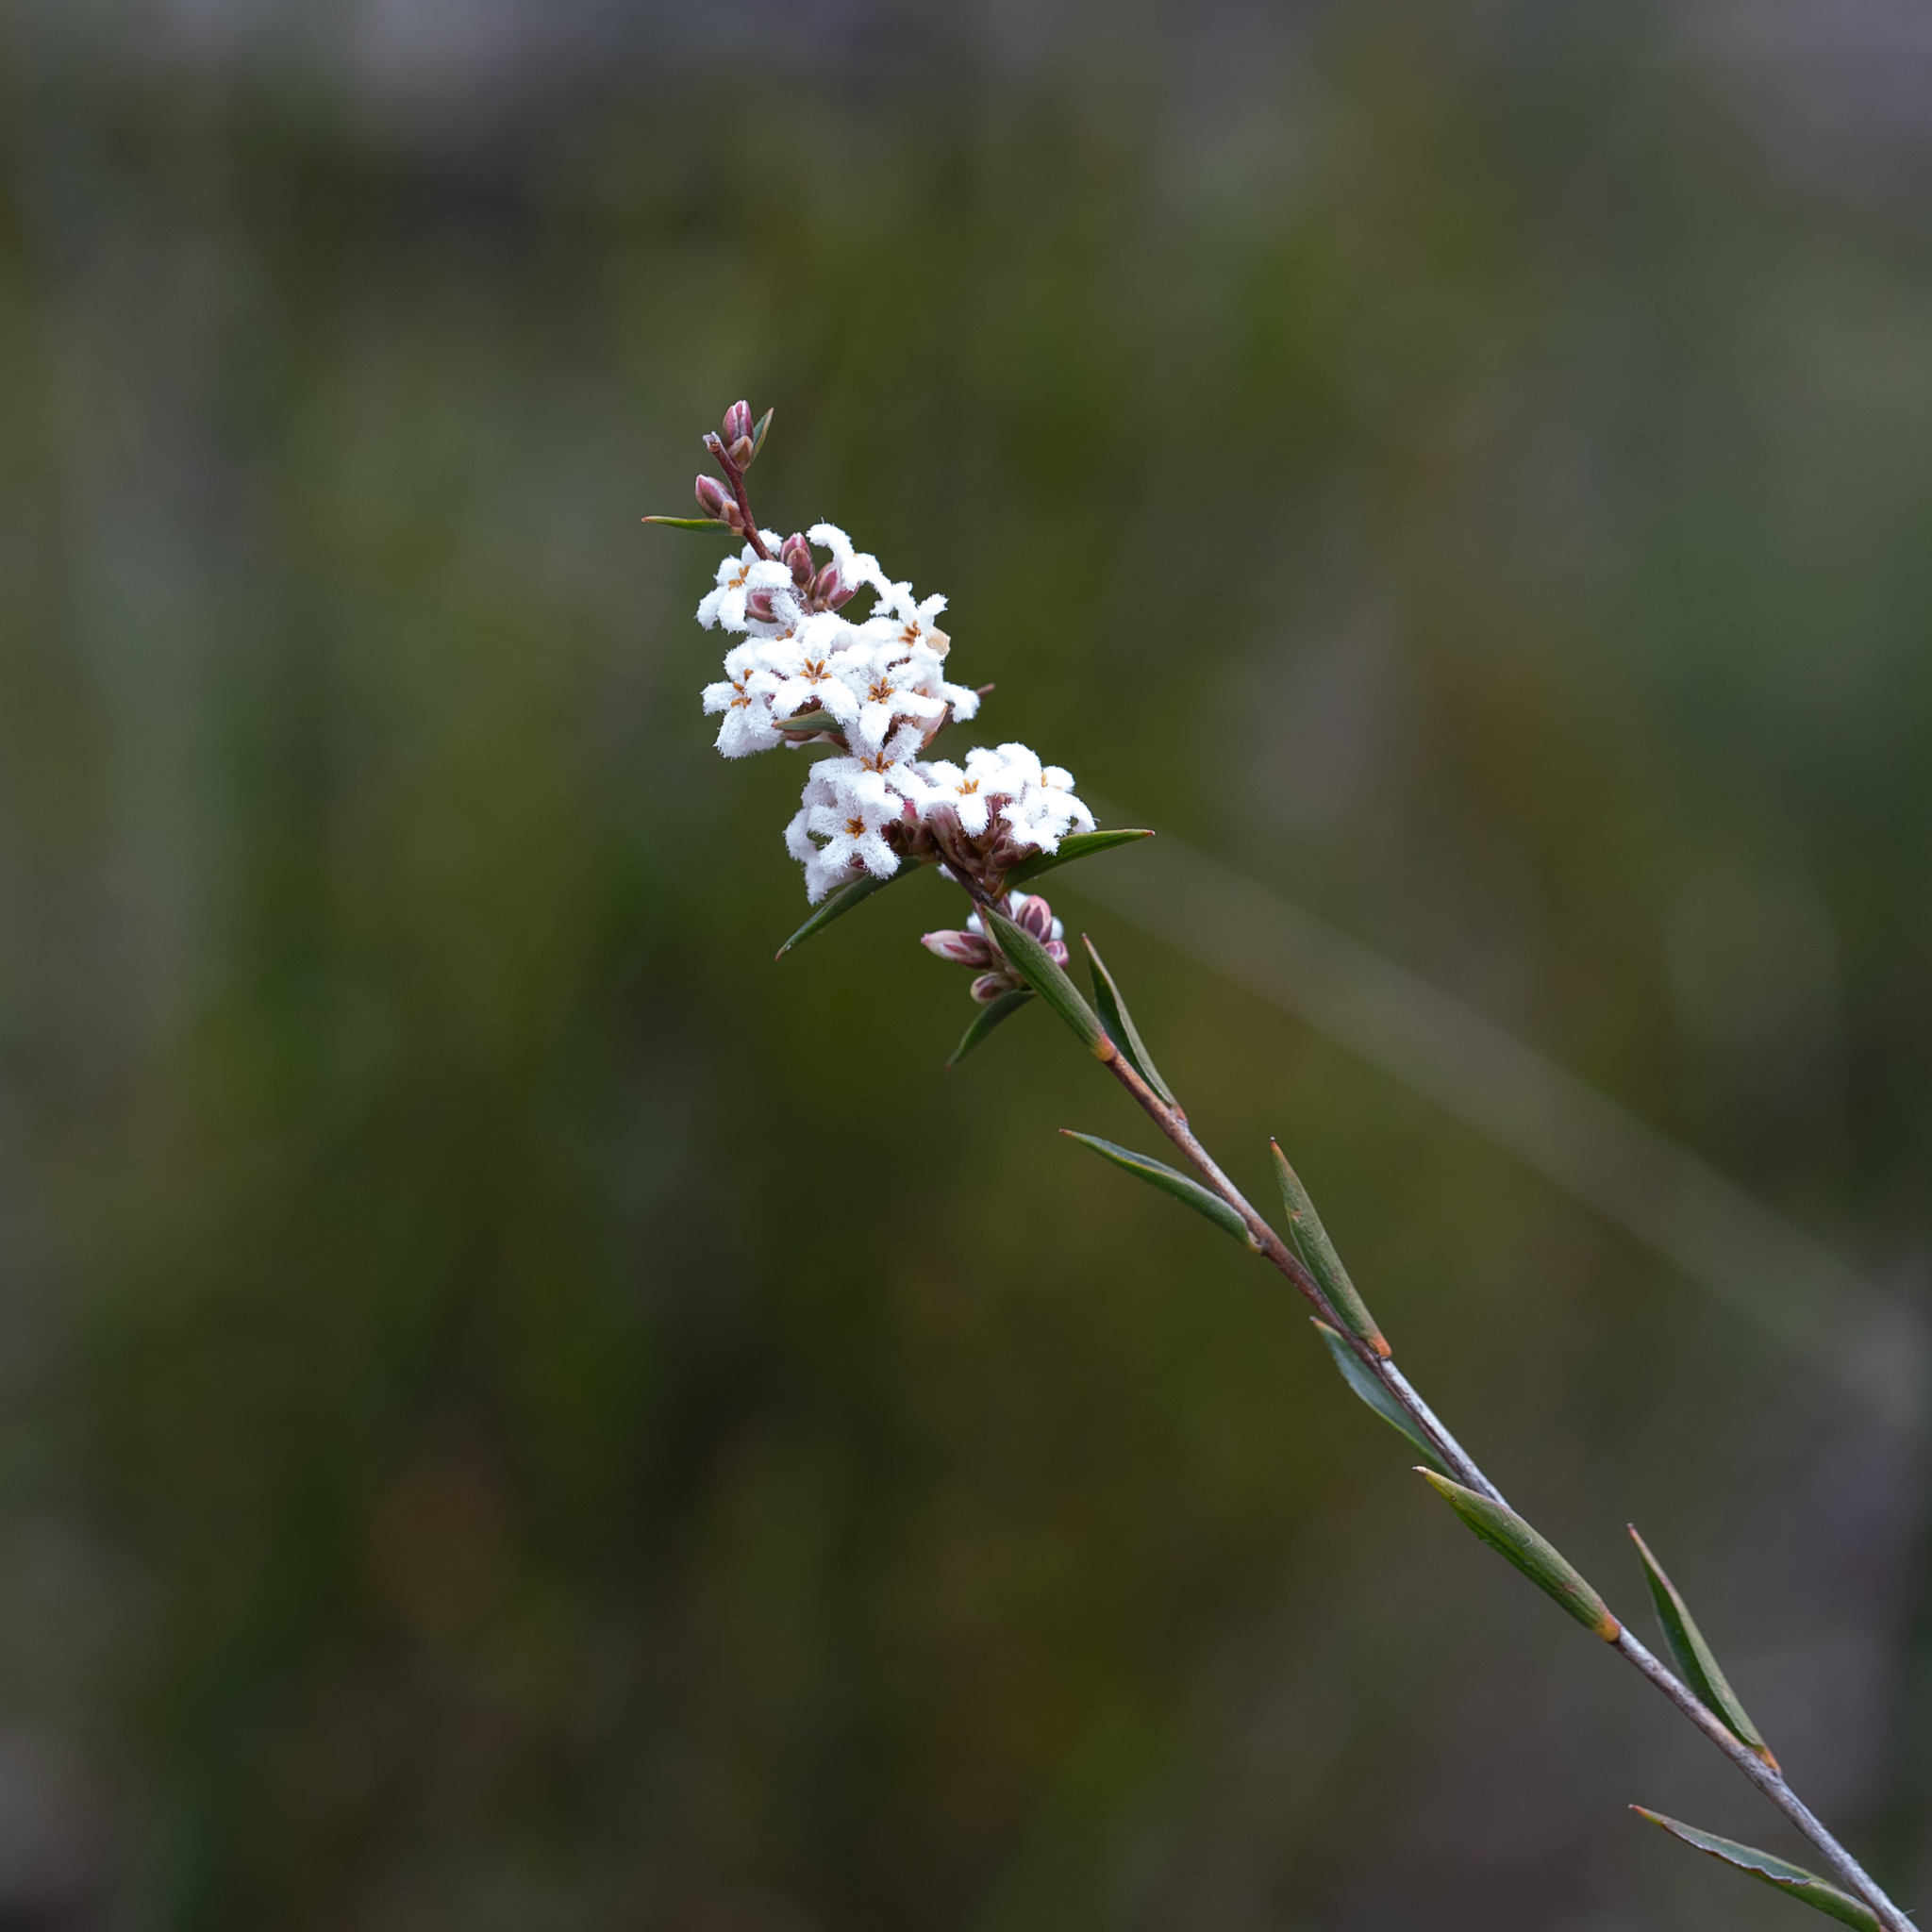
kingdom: Plantae
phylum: Tracheophyta
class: Magnoliopsida
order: Ericales
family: Ericaceae
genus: Leucopogon
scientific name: Leucopogon virgatus
